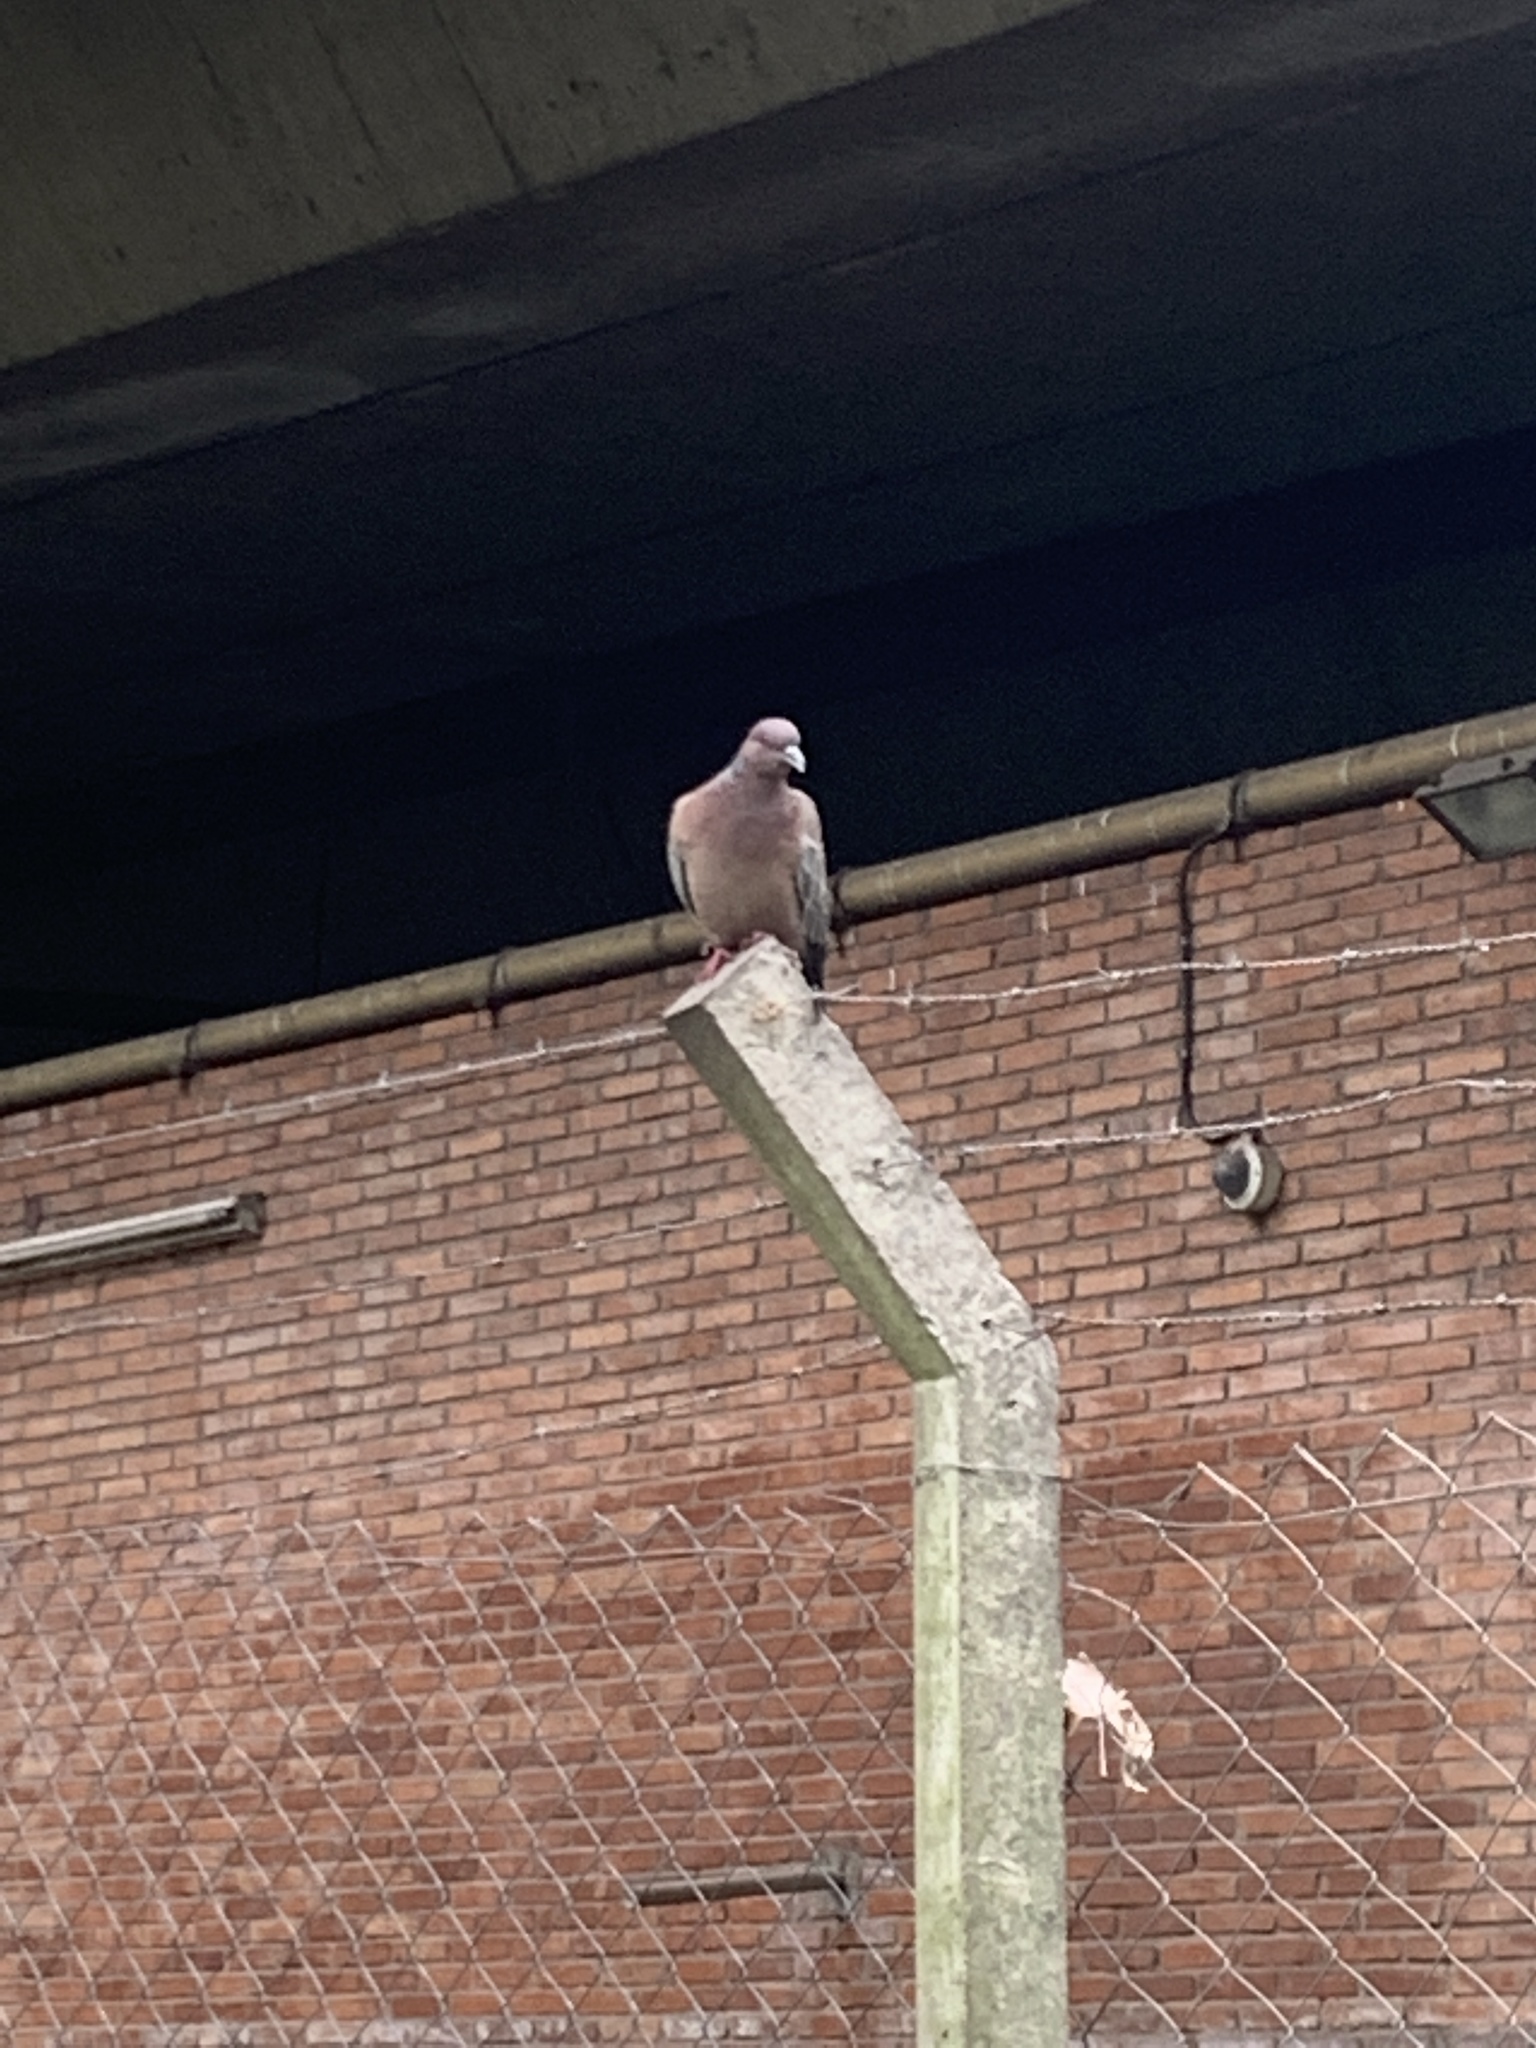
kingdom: Animalia
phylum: Chordata
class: Aves
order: Columbiformes
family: Columbidae
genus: Patagioenas
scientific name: Patagioenas picazuro
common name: Picazuro pigeon
